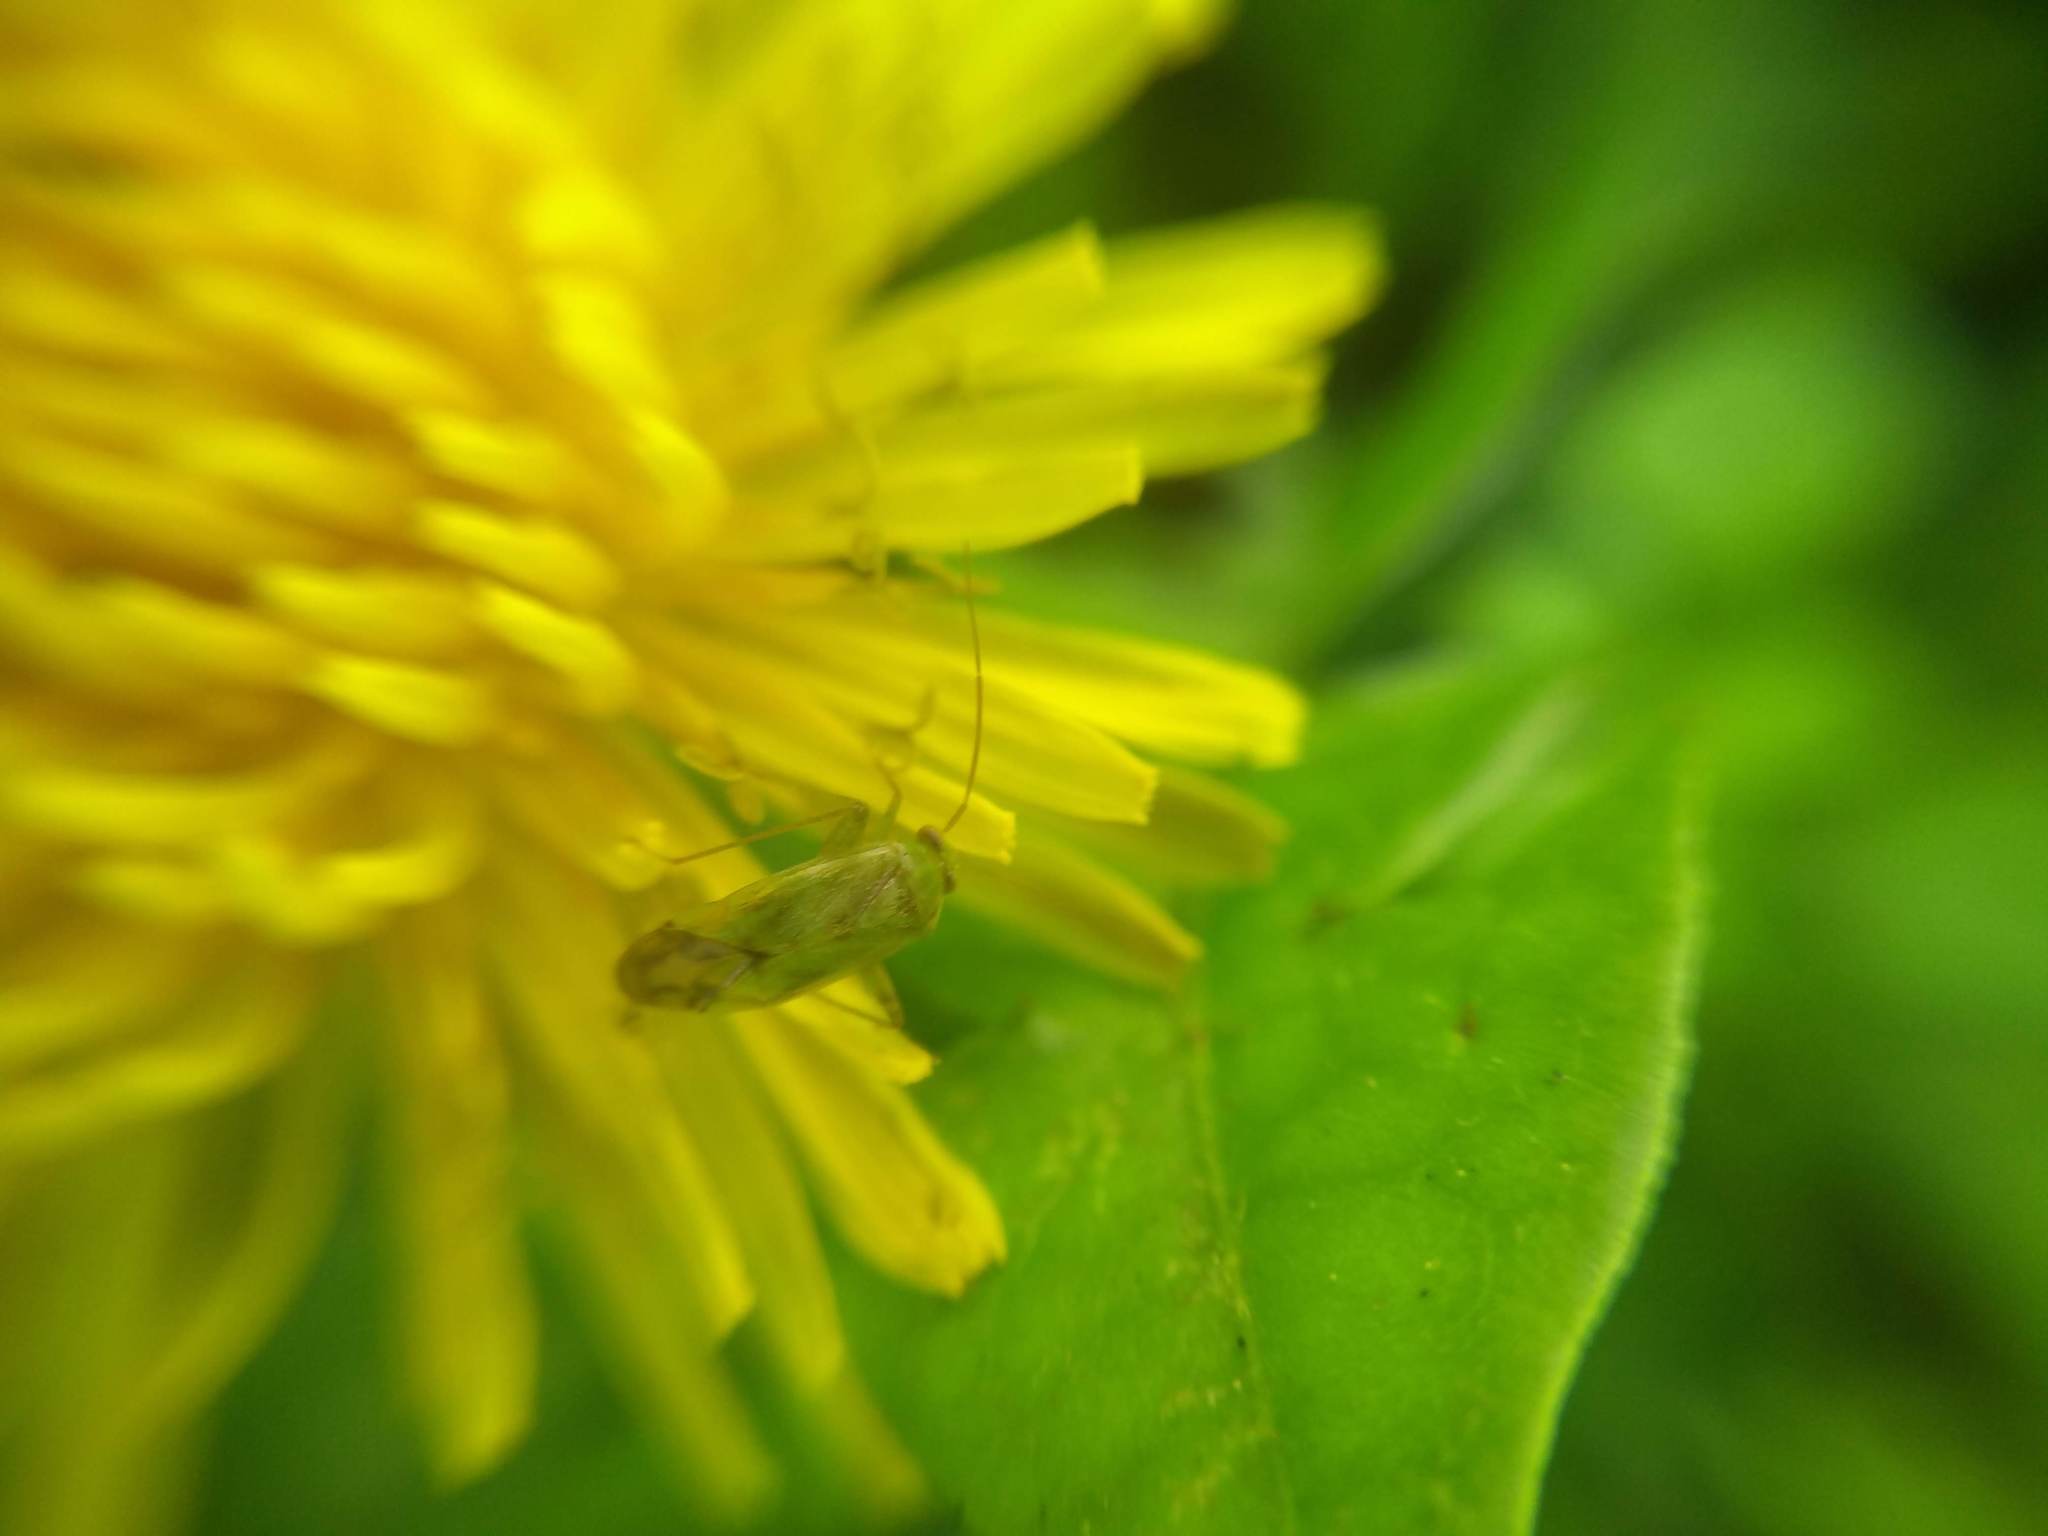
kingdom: Animalia
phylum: Arthropoda
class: Insecta
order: Hemiptera
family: Miridae
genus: Taylorilygus
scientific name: Taylorilygus apicalis
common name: Plant bug
